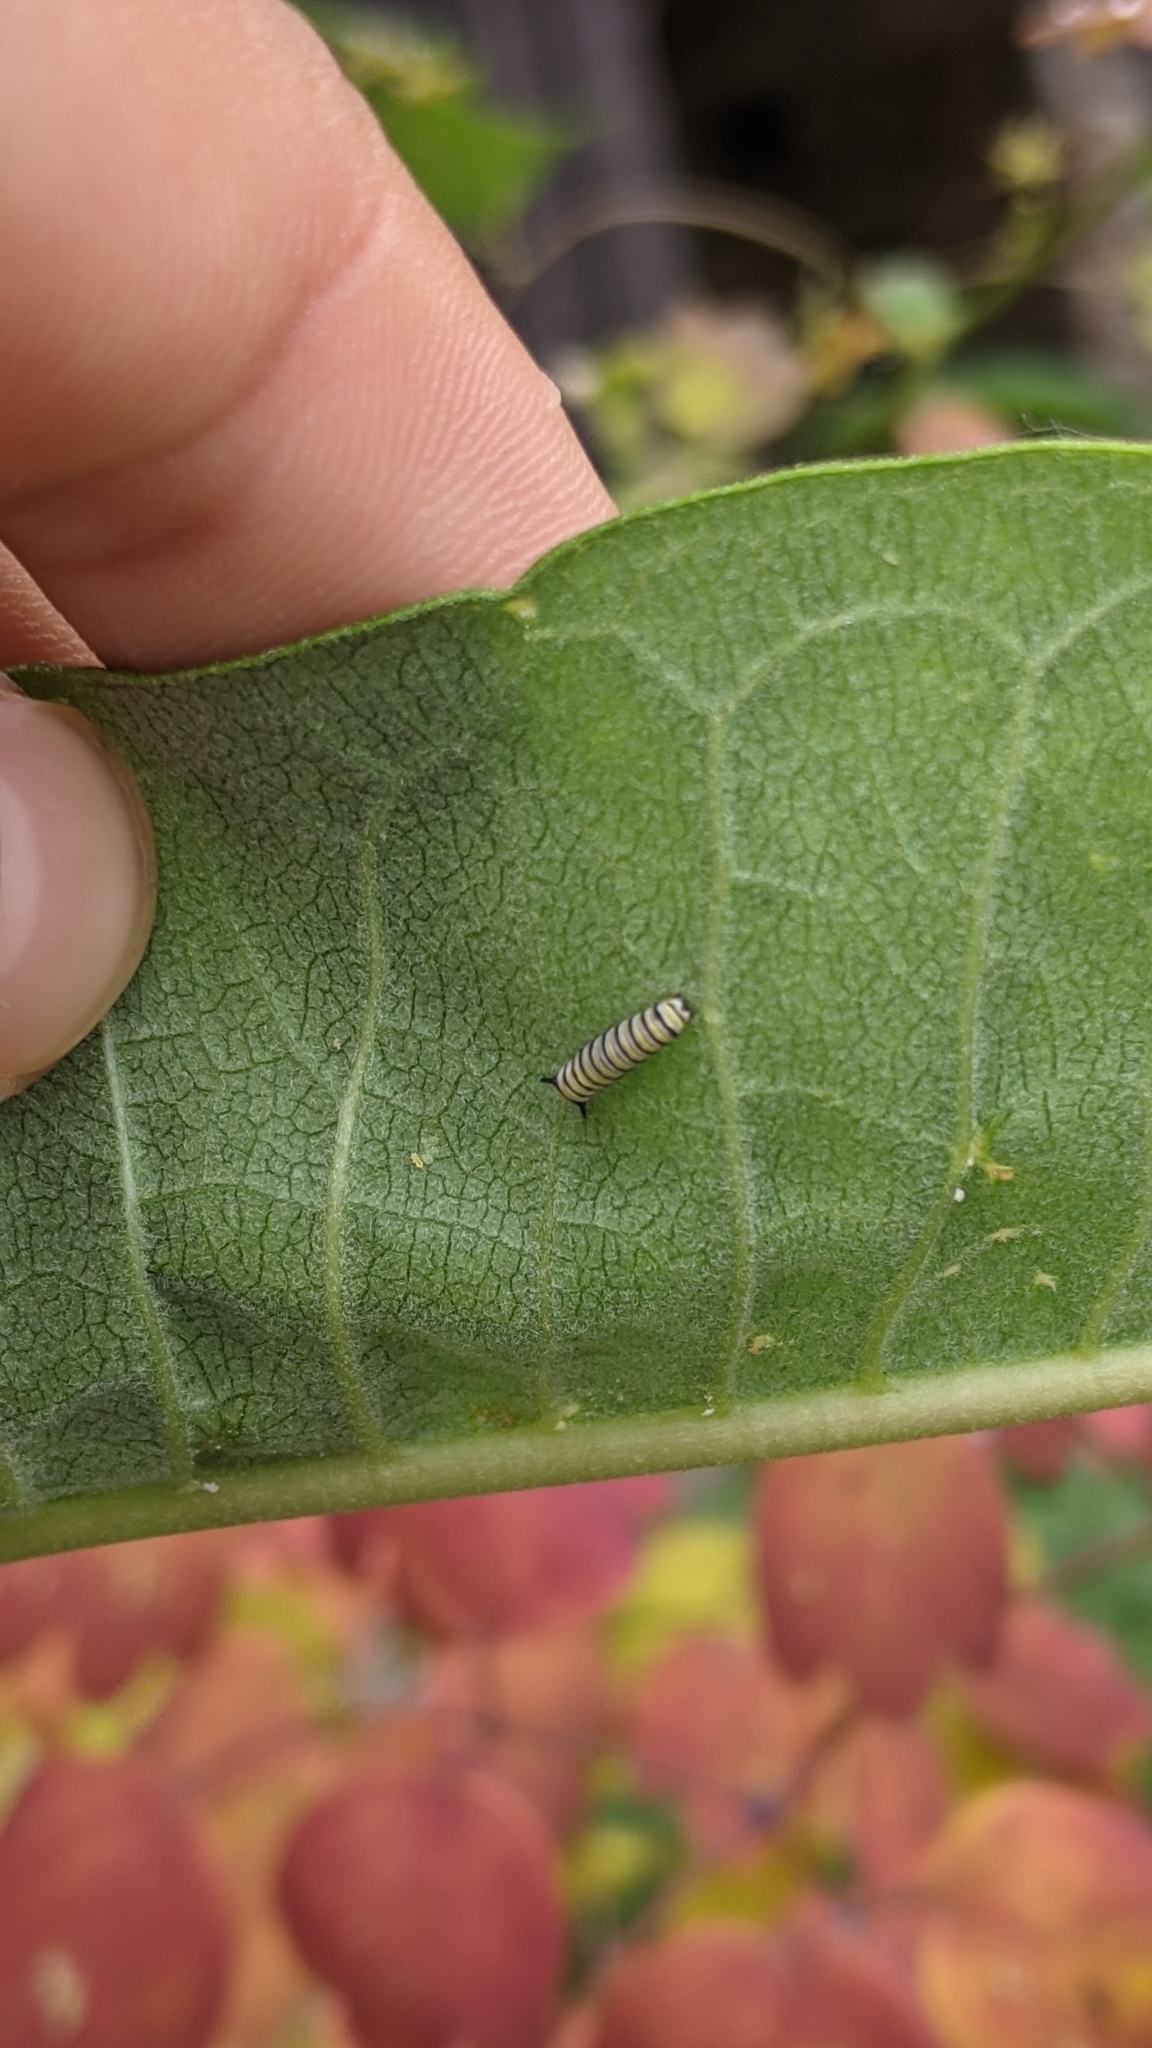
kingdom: Animalia
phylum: Arthropoda
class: Insecta
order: Lepidoptera
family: Nymphalidae
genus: Danaus
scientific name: Danaus plexippus
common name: Monarch
